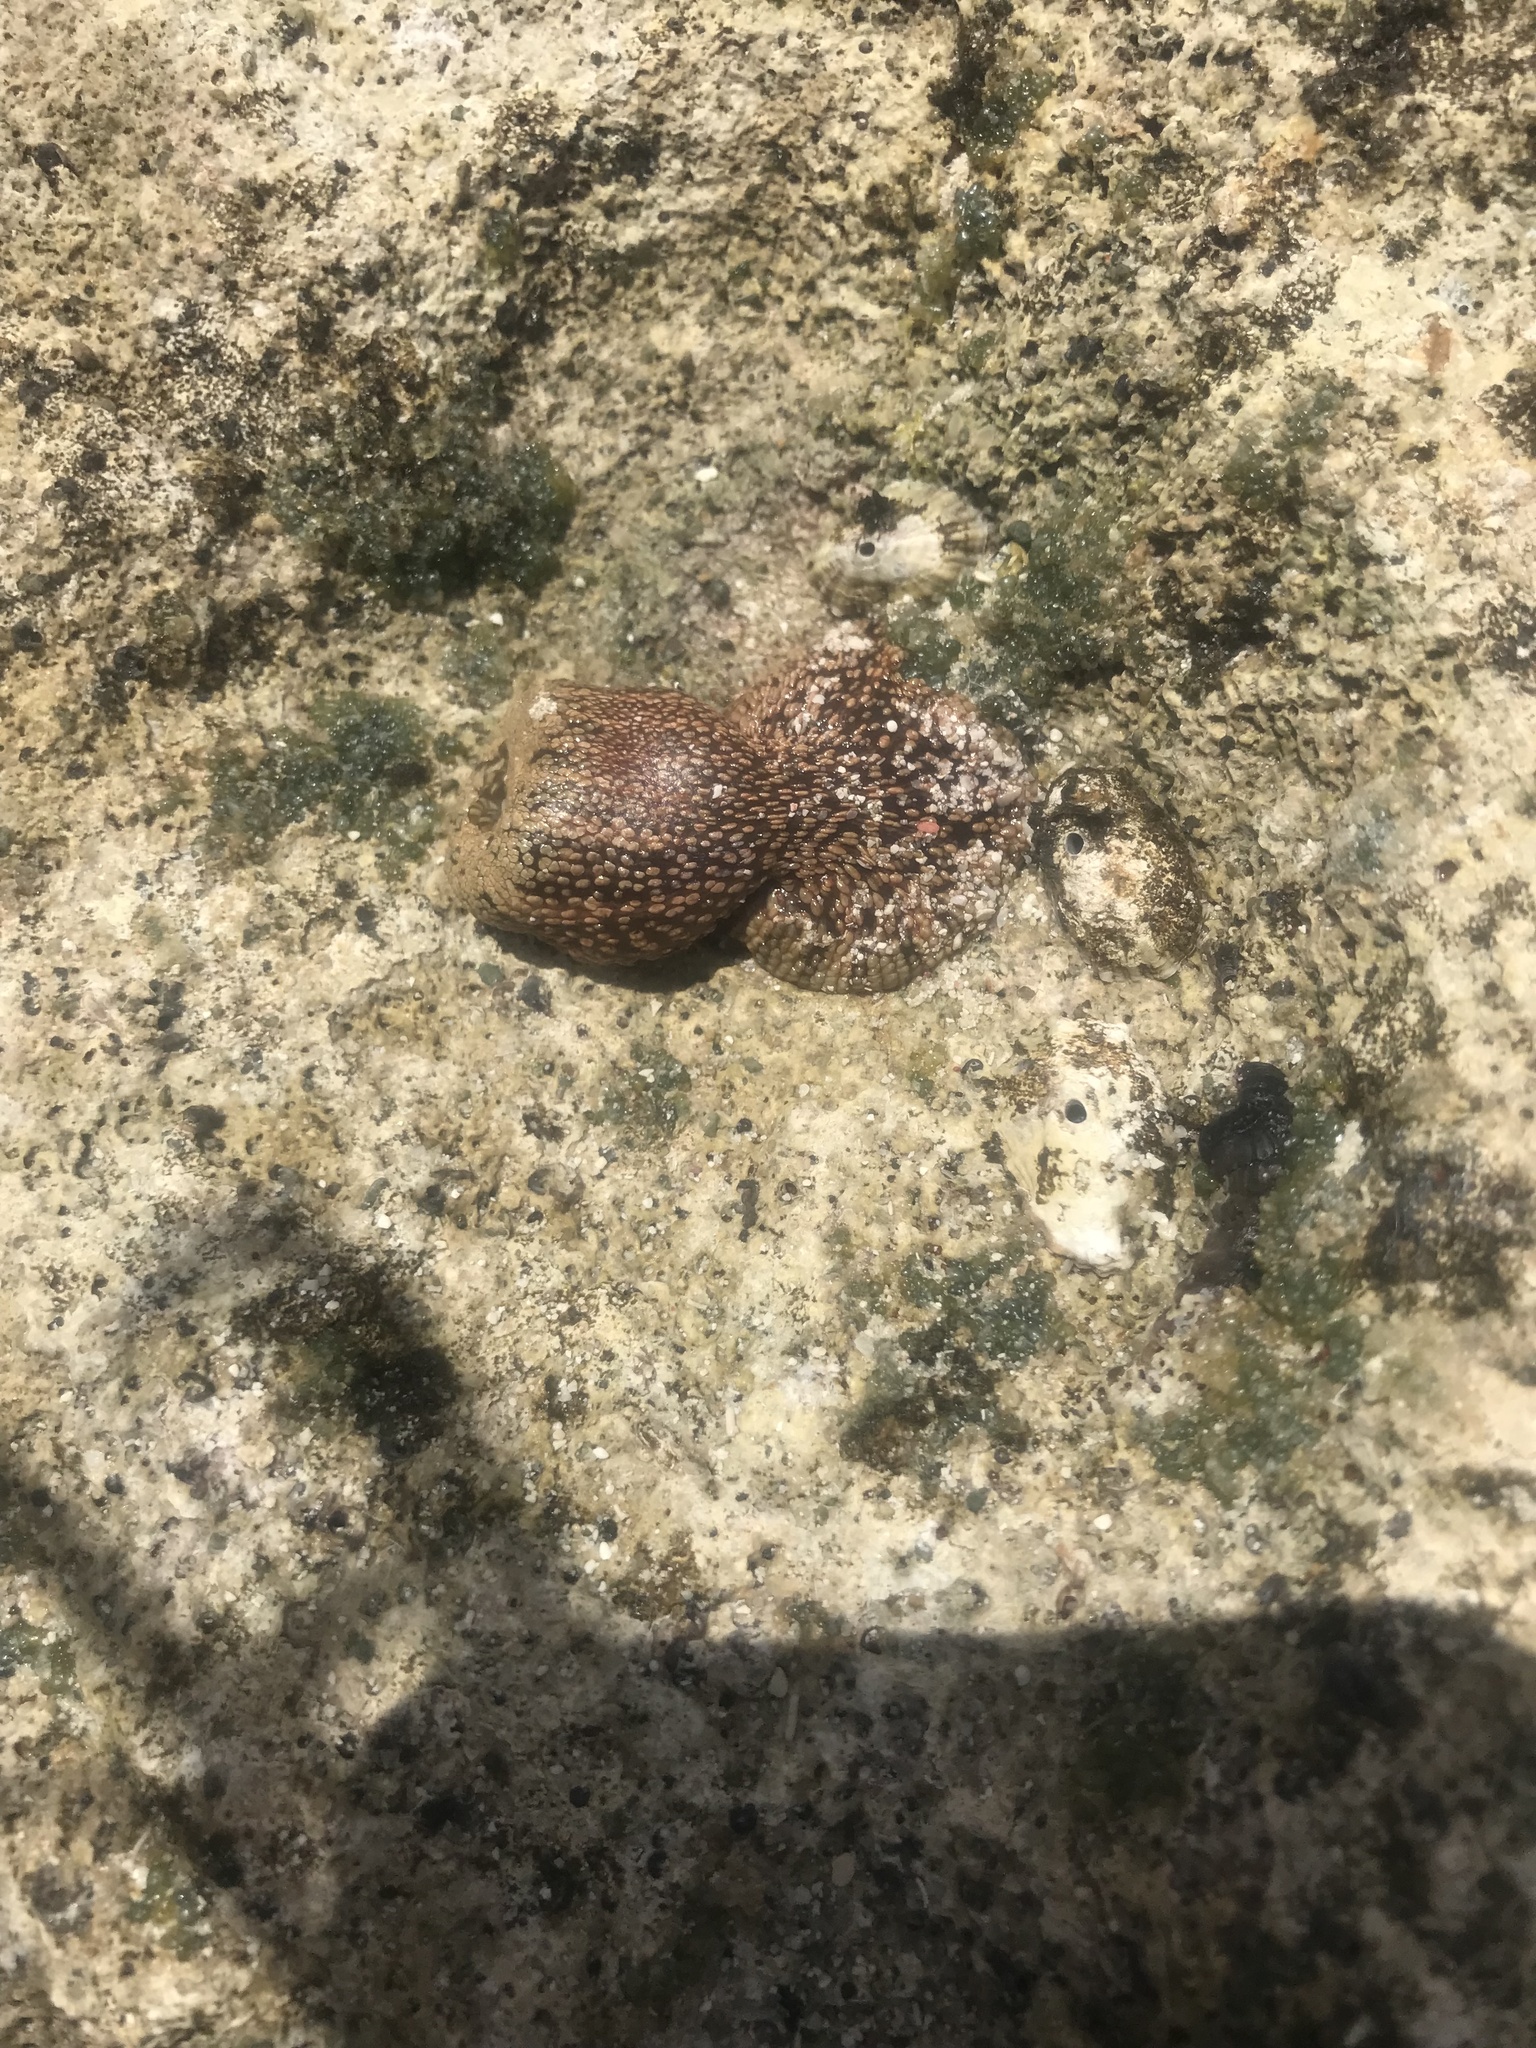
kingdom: Animalia
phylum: Cnidaria
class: Anthozoa
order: Actiniaria
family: Actiniidae
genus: Bunodosoma
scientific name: Bunodosoma granuliferum
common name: Red warty anemone
